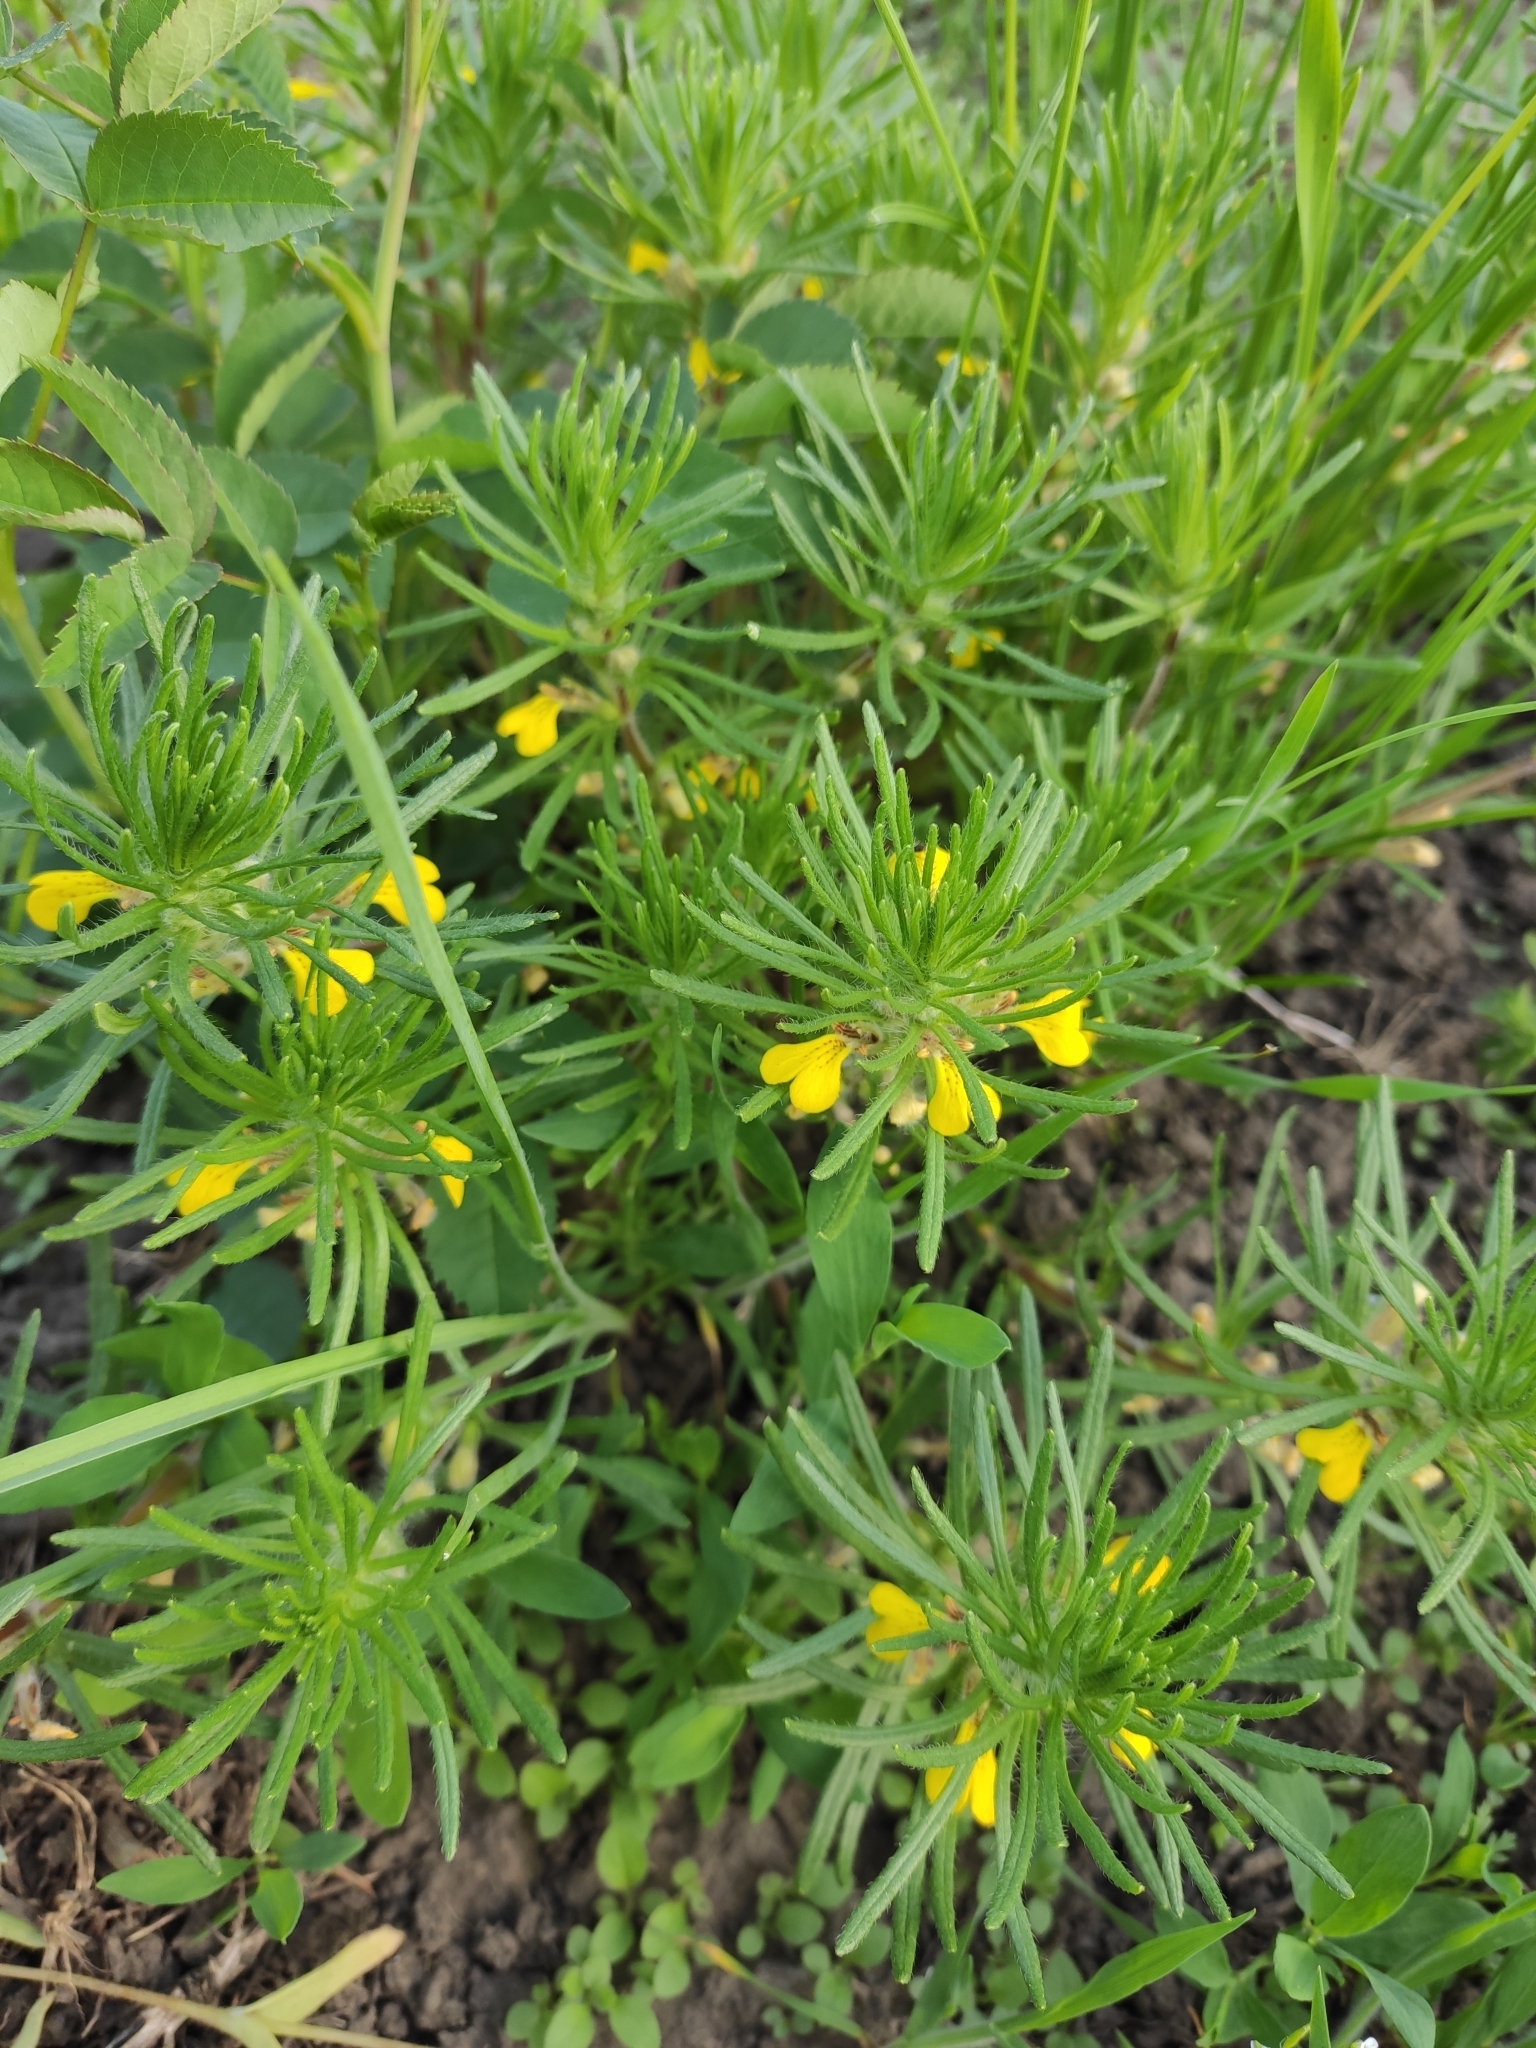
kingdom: Plantae
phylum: Tracheophyta
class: Magnoliopsida
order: Lamiales
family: Lamiaceae
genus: Ajuga
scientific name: Ajuga chamaepitys
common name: Ground-pine
